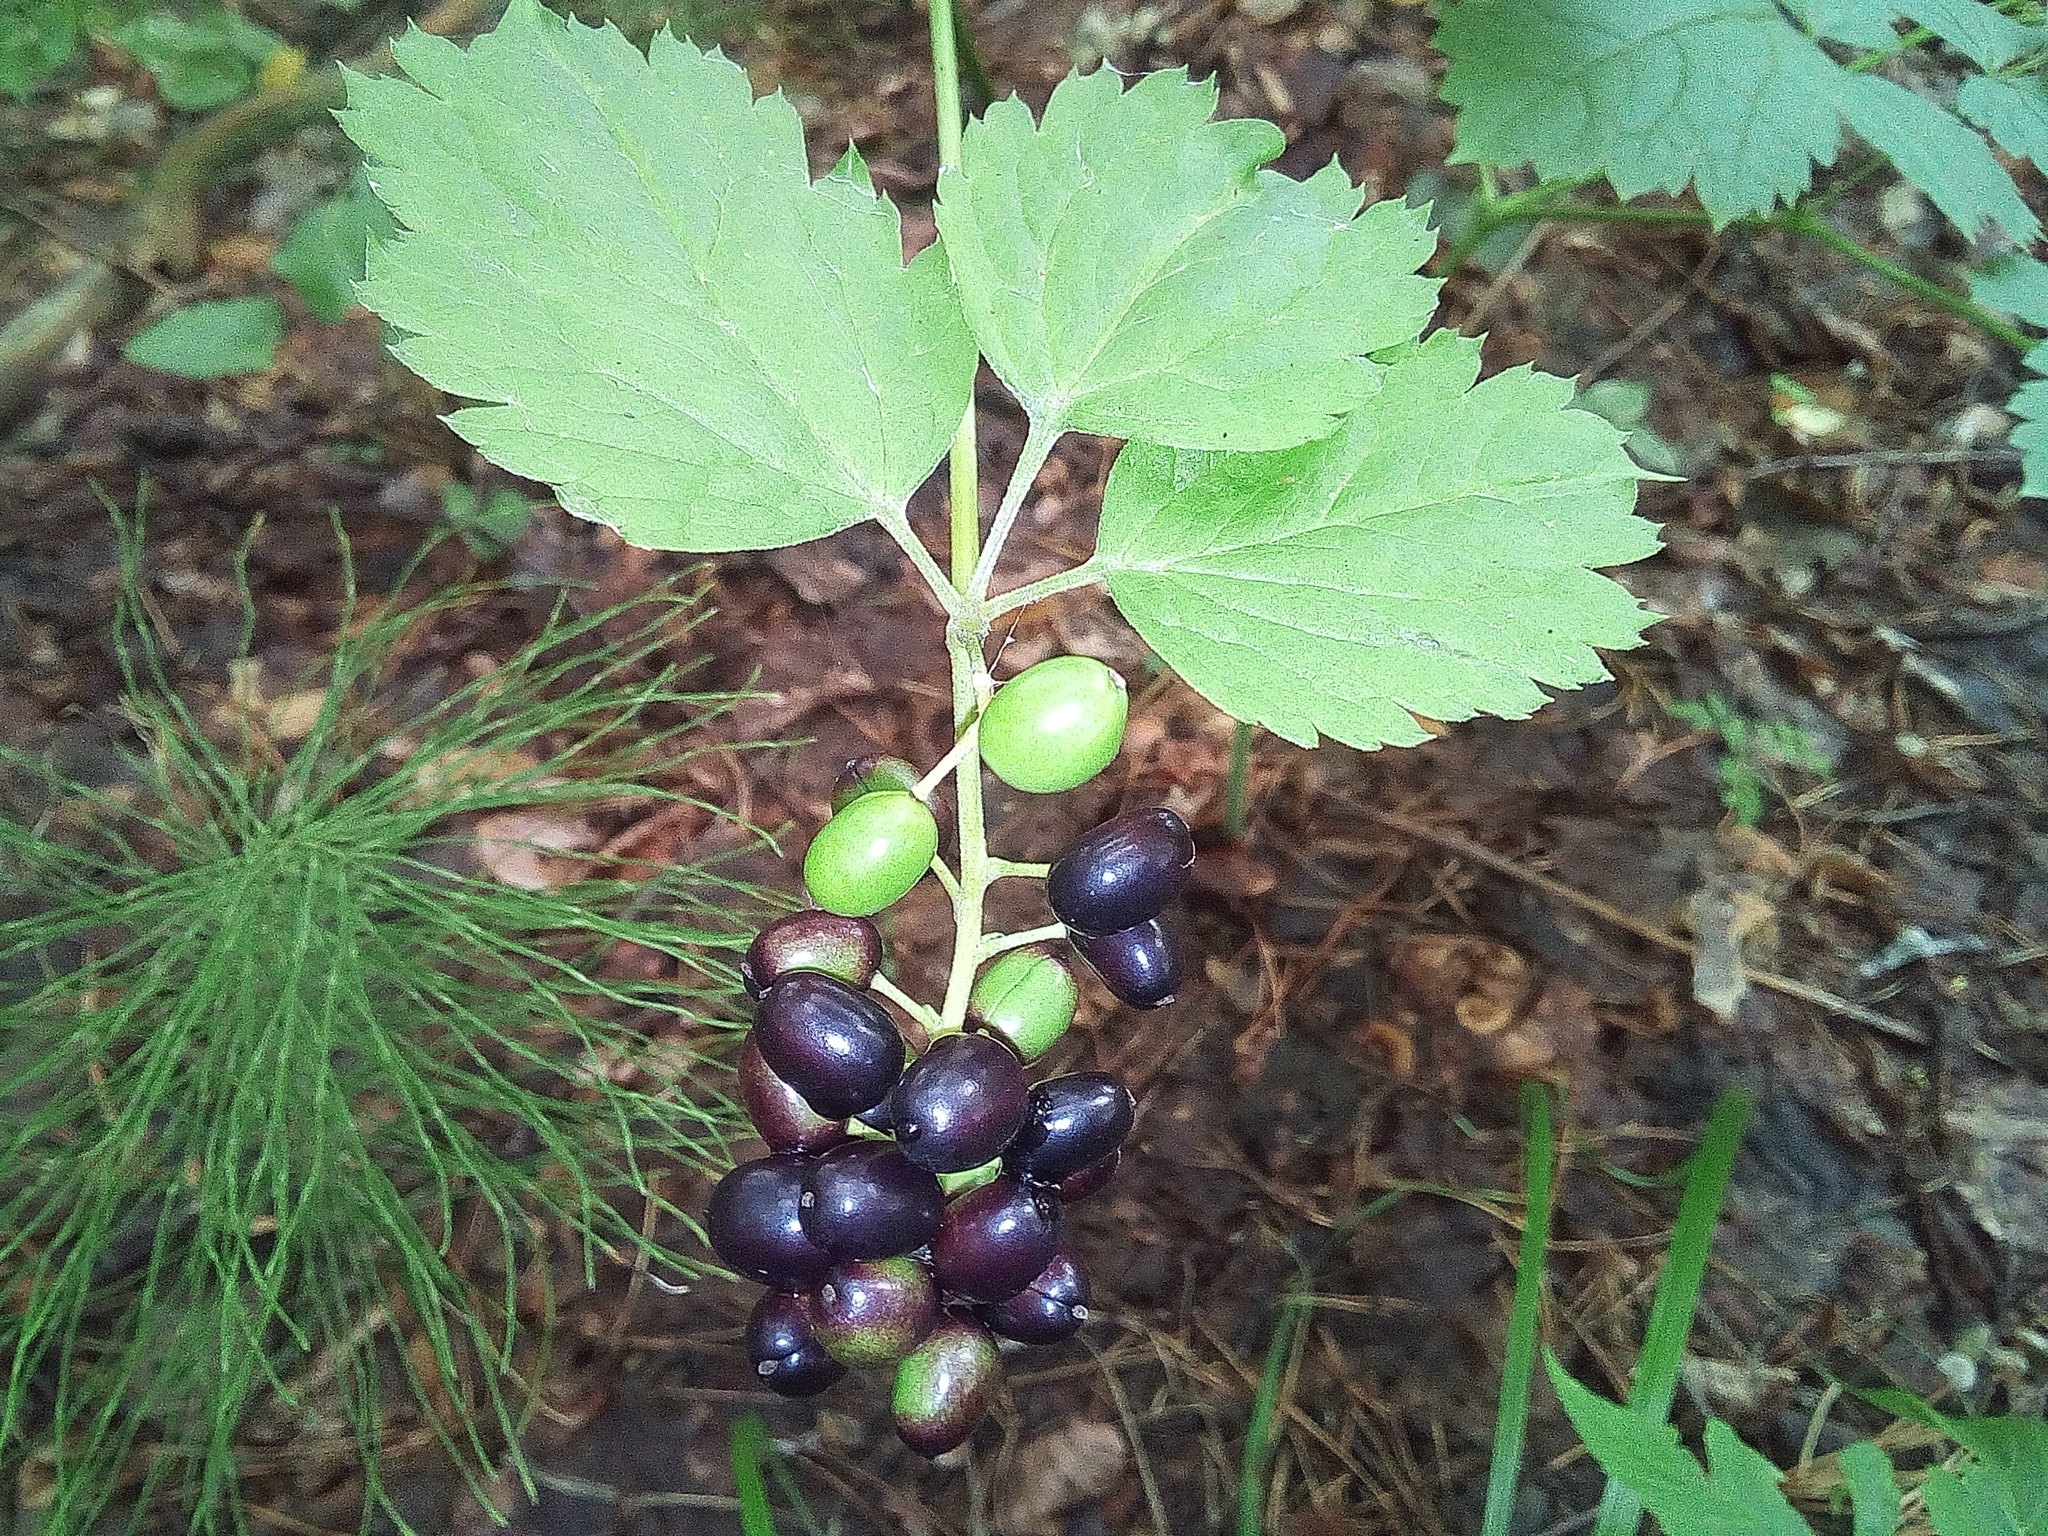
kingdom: Plantae
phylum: Tracheophyta
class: Magnoliopsida
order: Ranunculales
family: Ranunculaceae
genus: Actaea
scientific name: Actaea spicata
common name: Baneberry
